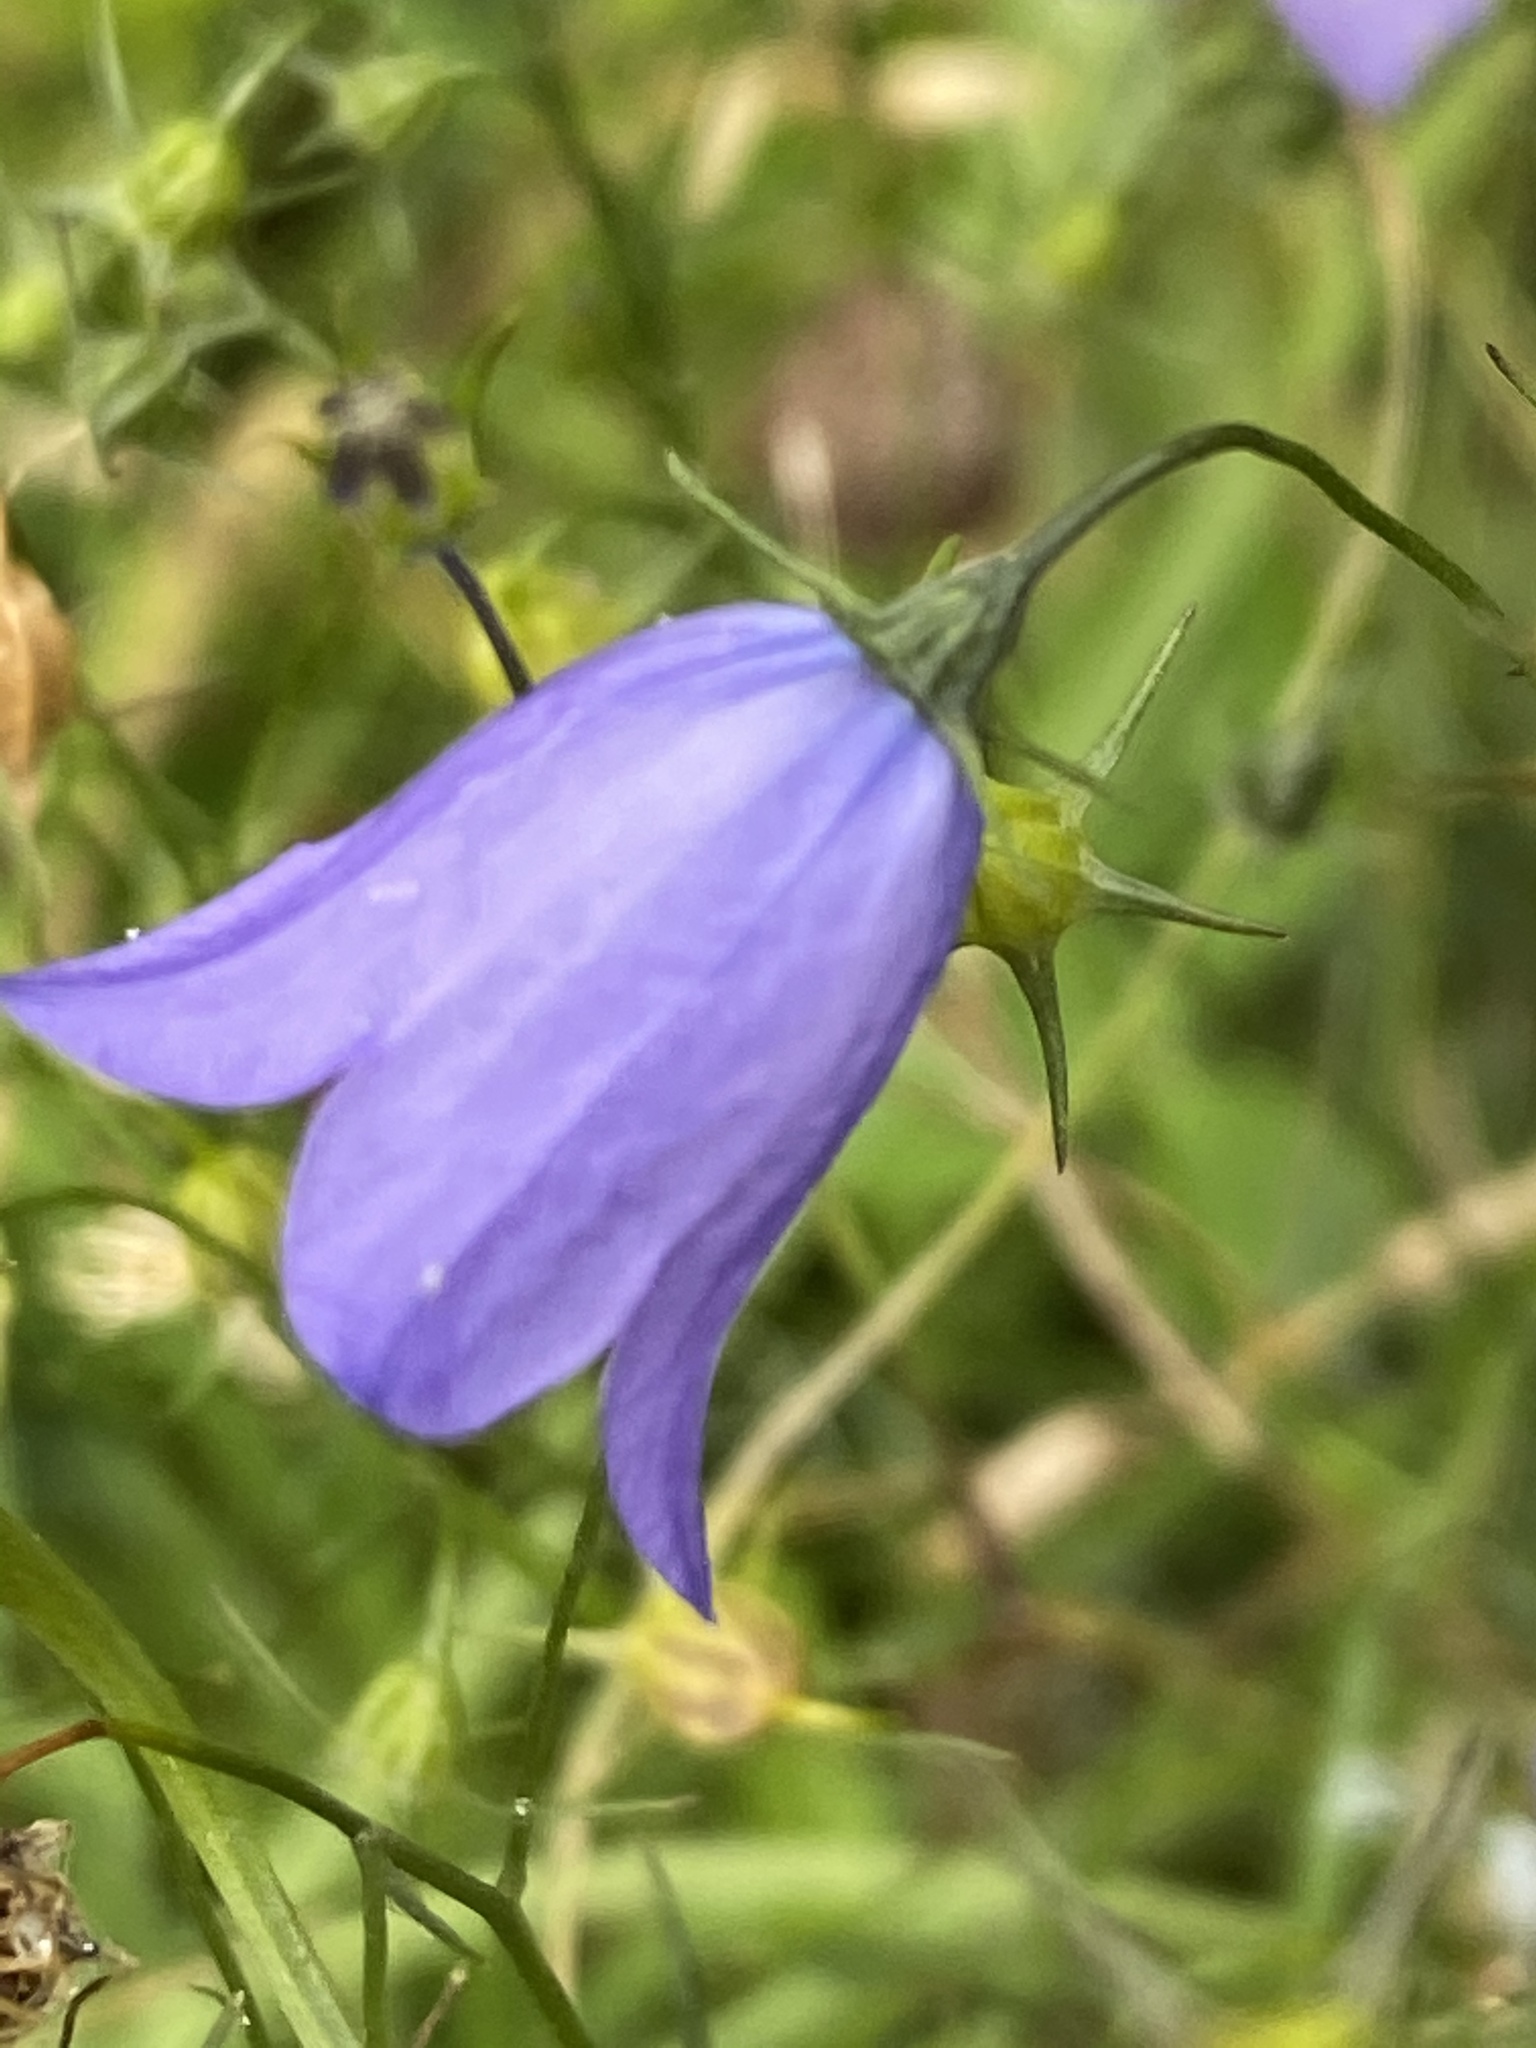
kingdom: Plantae
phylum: Tracheophyta
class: Magnoliopsida
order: Asterales
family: Campanulaceae
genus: Campanula
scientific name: Campanula rotundifolia
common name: Harebell
